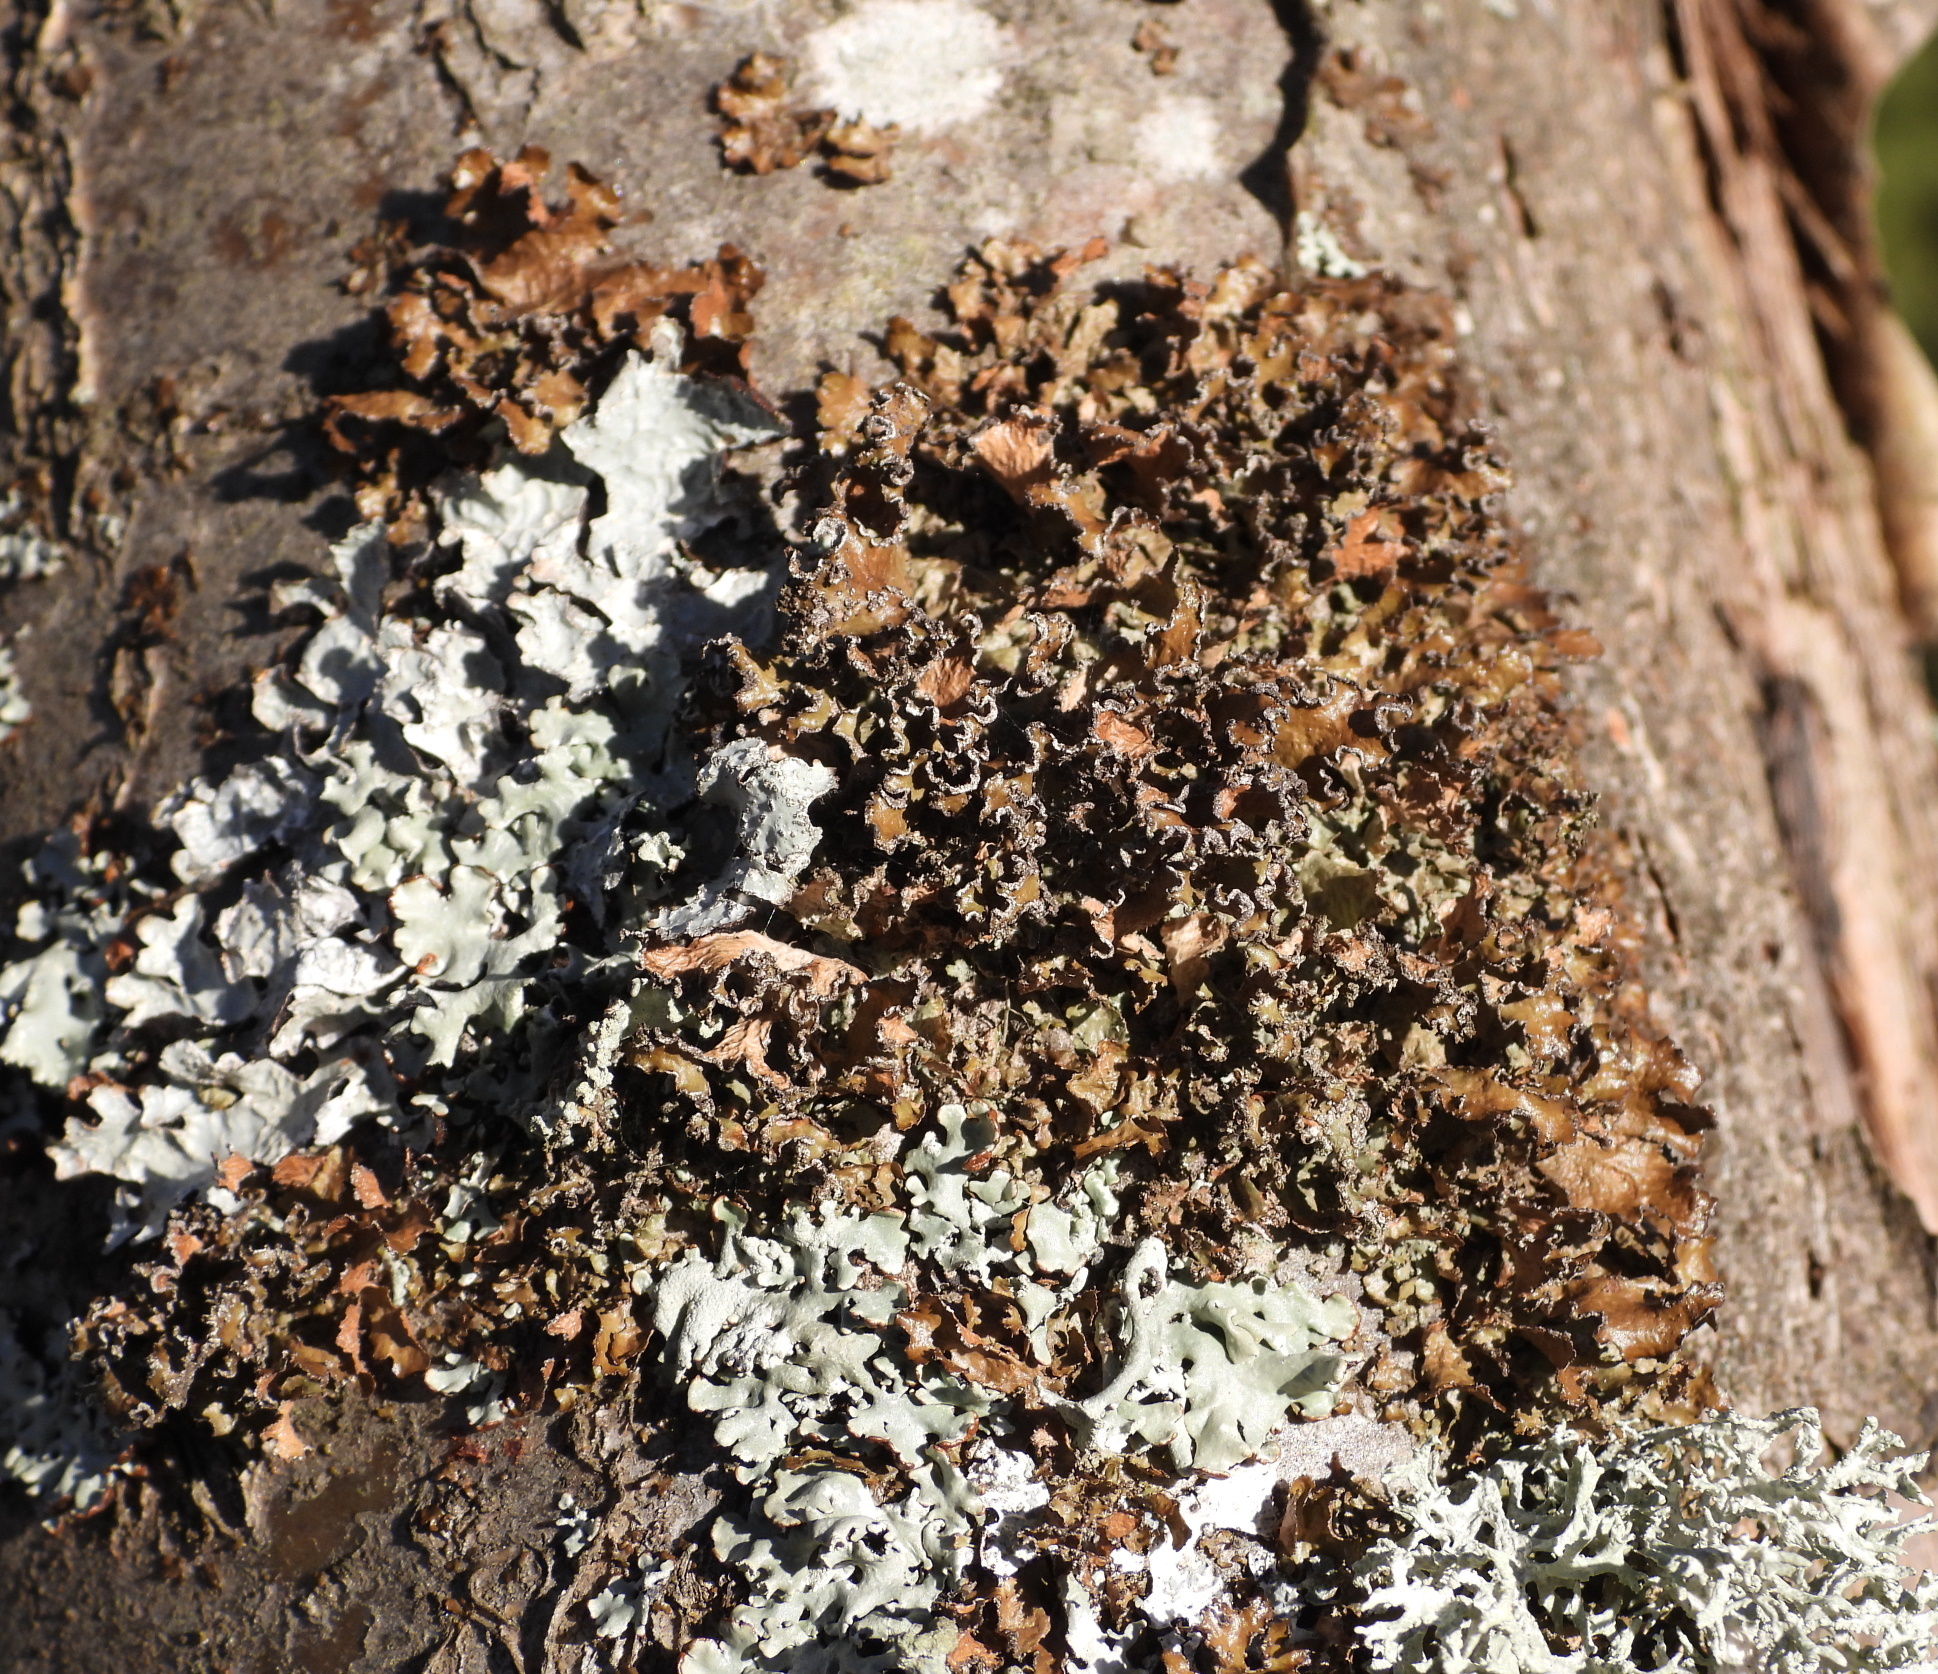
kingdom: Fungi
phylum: Ascomycota
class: Lecanoromycetes
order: Lecanorales
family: Parmeliaceae
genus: Nephromopsis
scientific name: Nephromopsis chlorophylla
